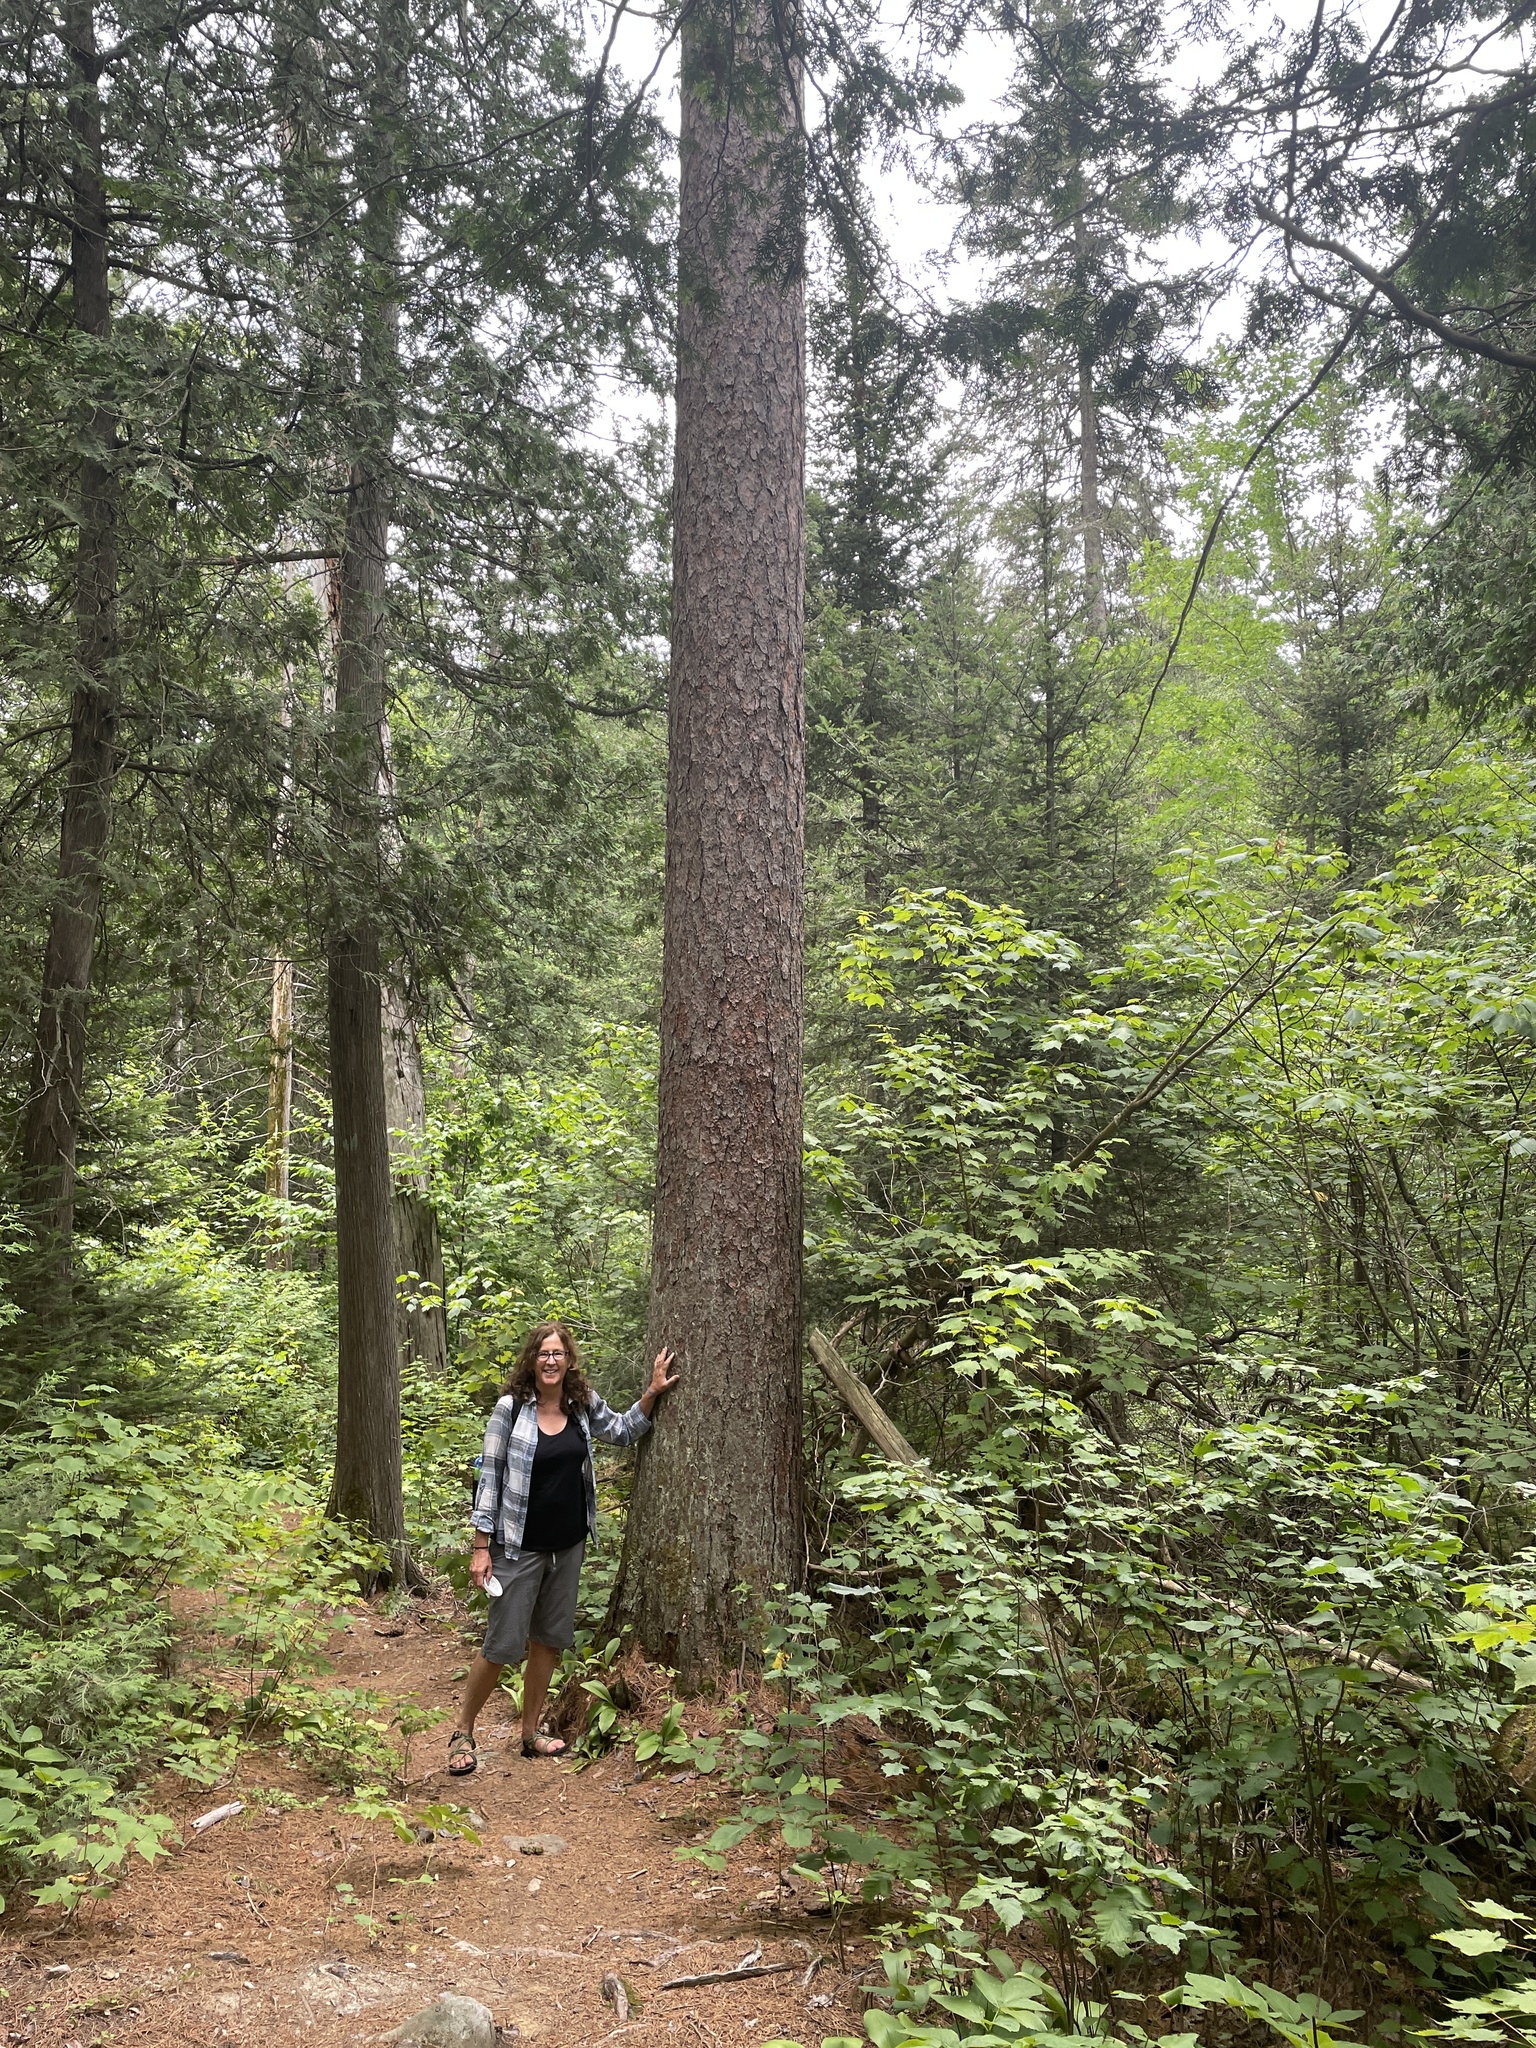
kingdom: Plantae
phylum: Tracheophyta
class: Pinopsida
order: Pinales
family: Pinaceae
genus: Pinus
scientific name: Pinus resinosa
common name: Norway pine
